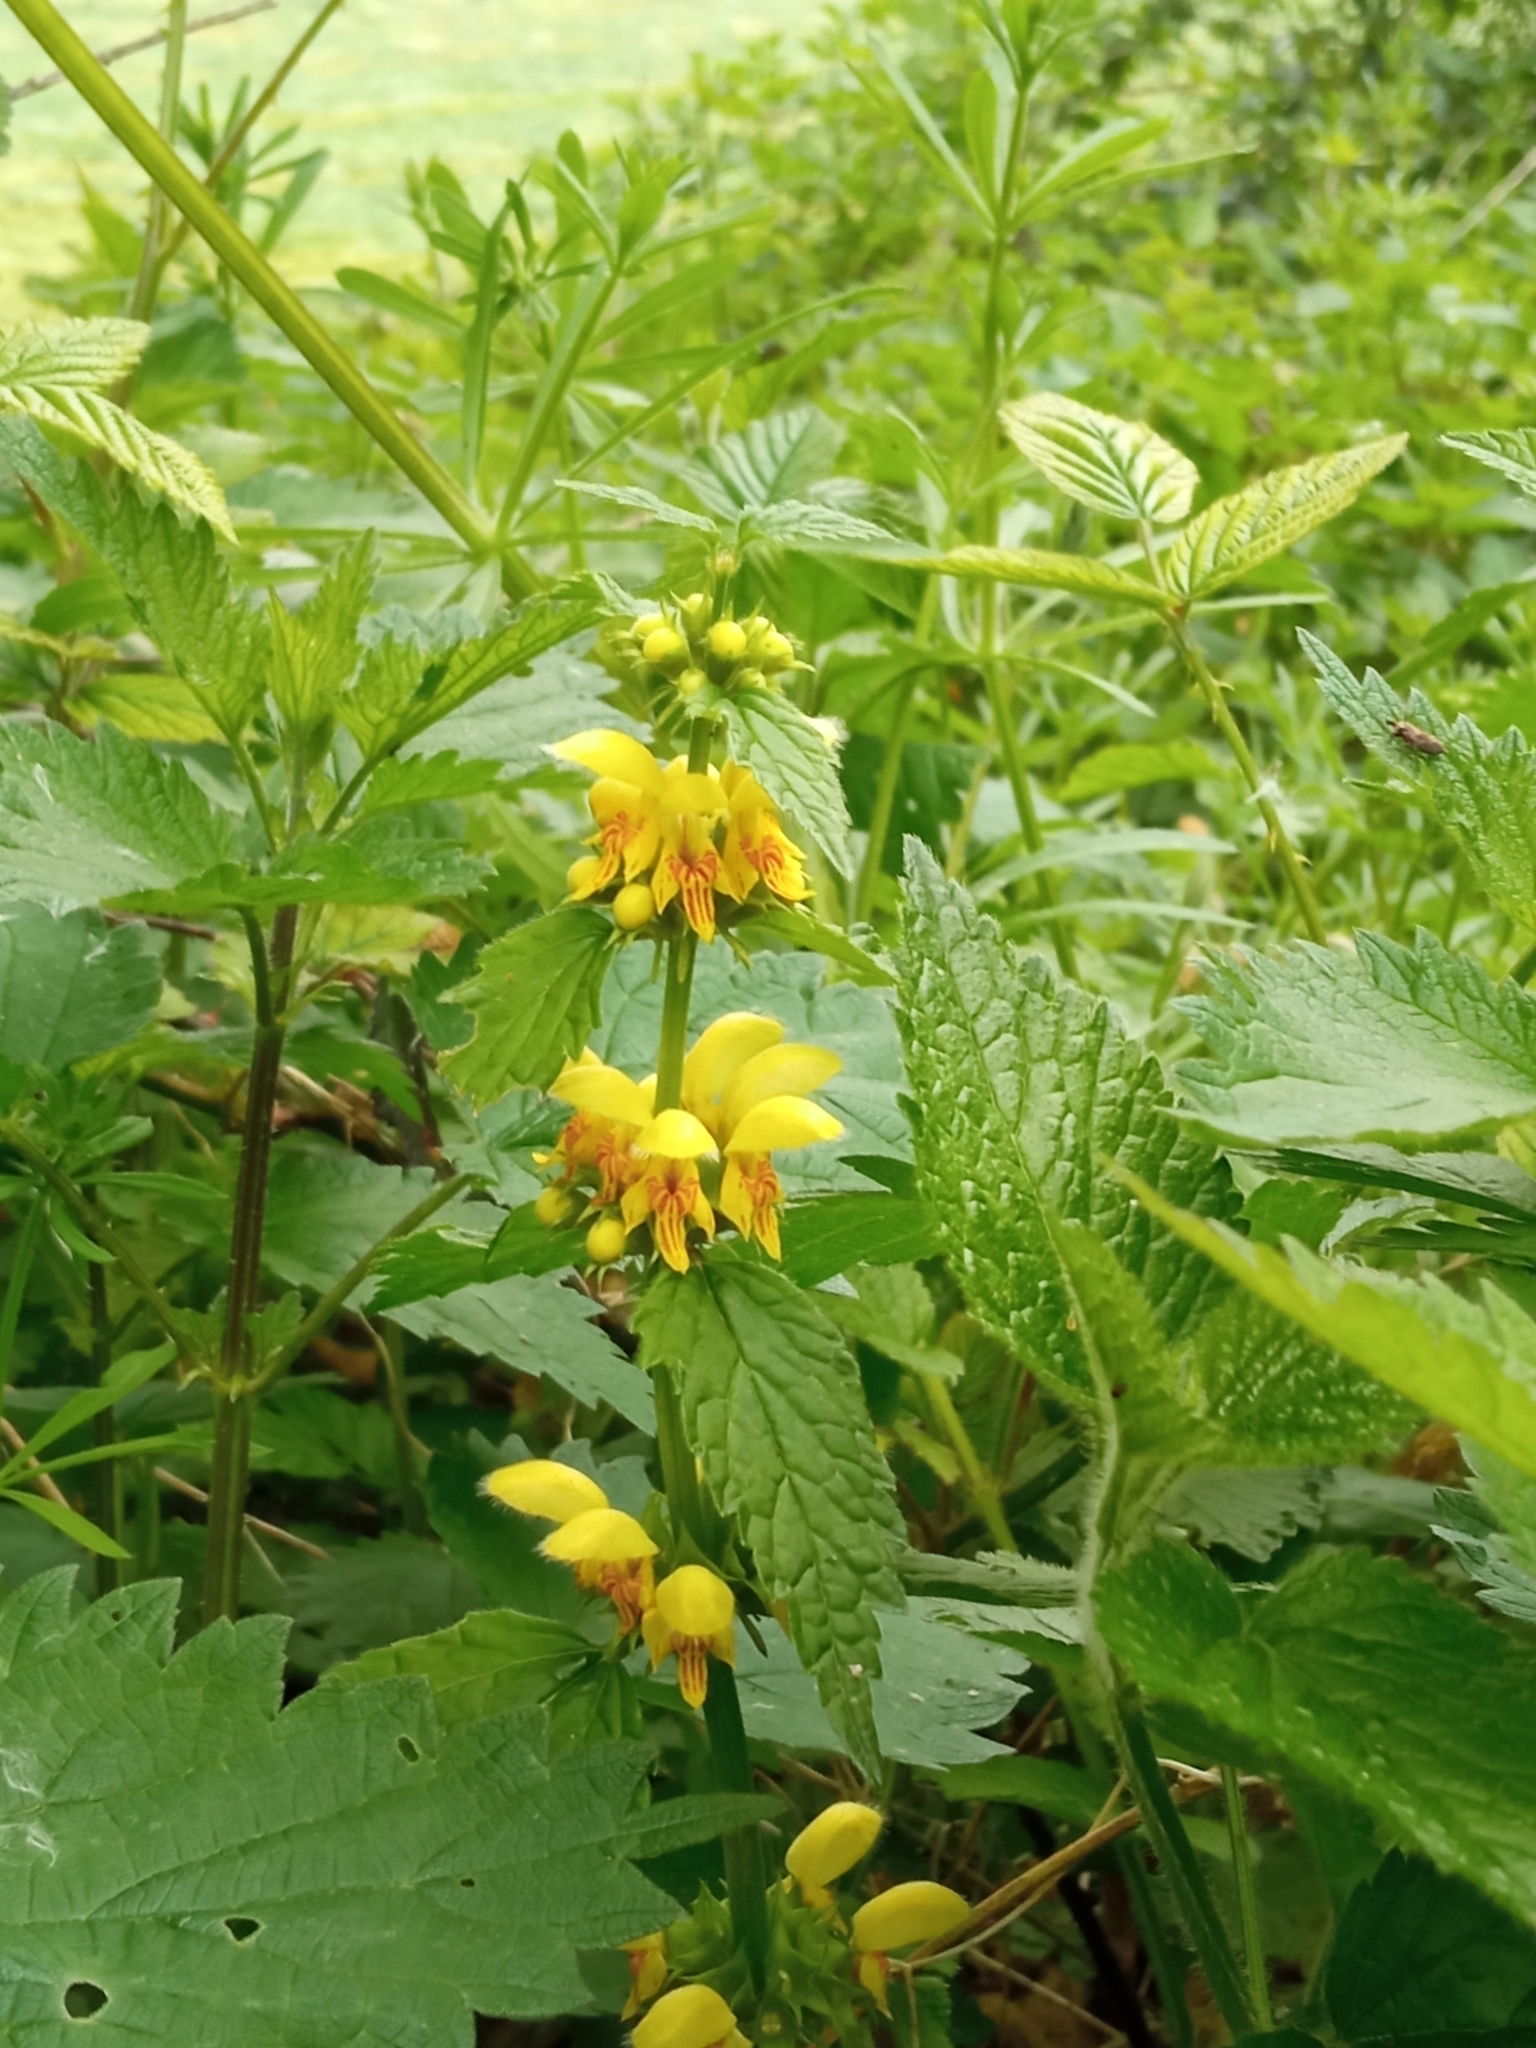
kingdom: Plantae
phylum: Tracheophyta
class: Magnoliopsida
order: Lamiales
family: Lamiaceae
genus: Lamium
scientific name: Lamium galeobdolon
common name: Yellow archangel
